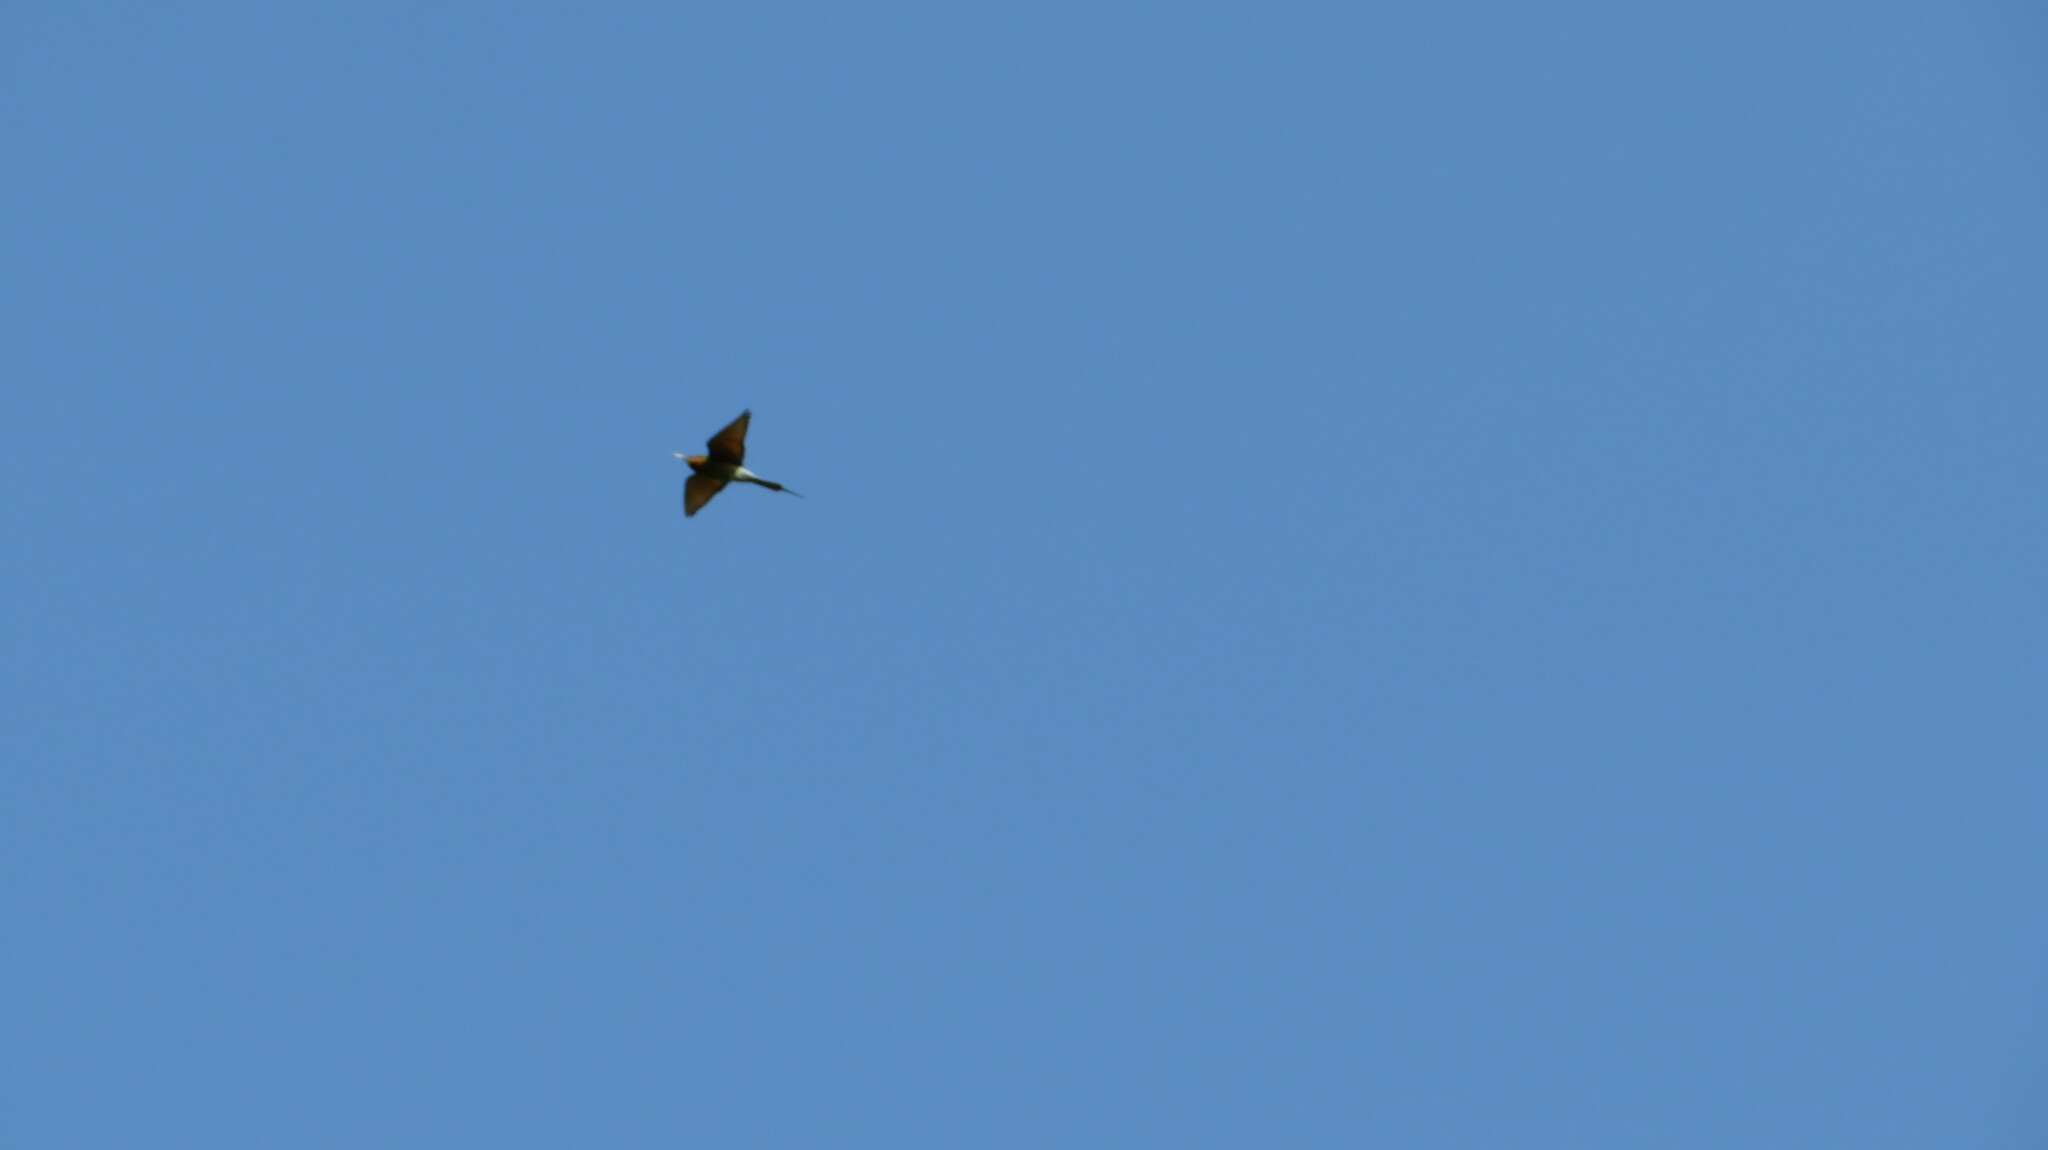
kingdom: Animalia
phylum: Chordata
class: Aves
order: Coraciiformes
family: Meropidae
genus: Merops
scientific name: Merops philippinus
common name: Blue-tailed bee-eater
